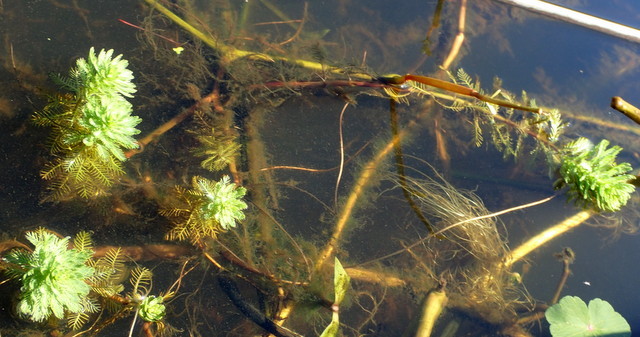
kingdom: Plantae
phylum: Tracheophyta
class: Magnoliopsida
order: Saxifragales
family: Haloragaceae
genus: Myriophyllum
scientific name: Myriophyllum aquaticum
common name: Parrot's feather
